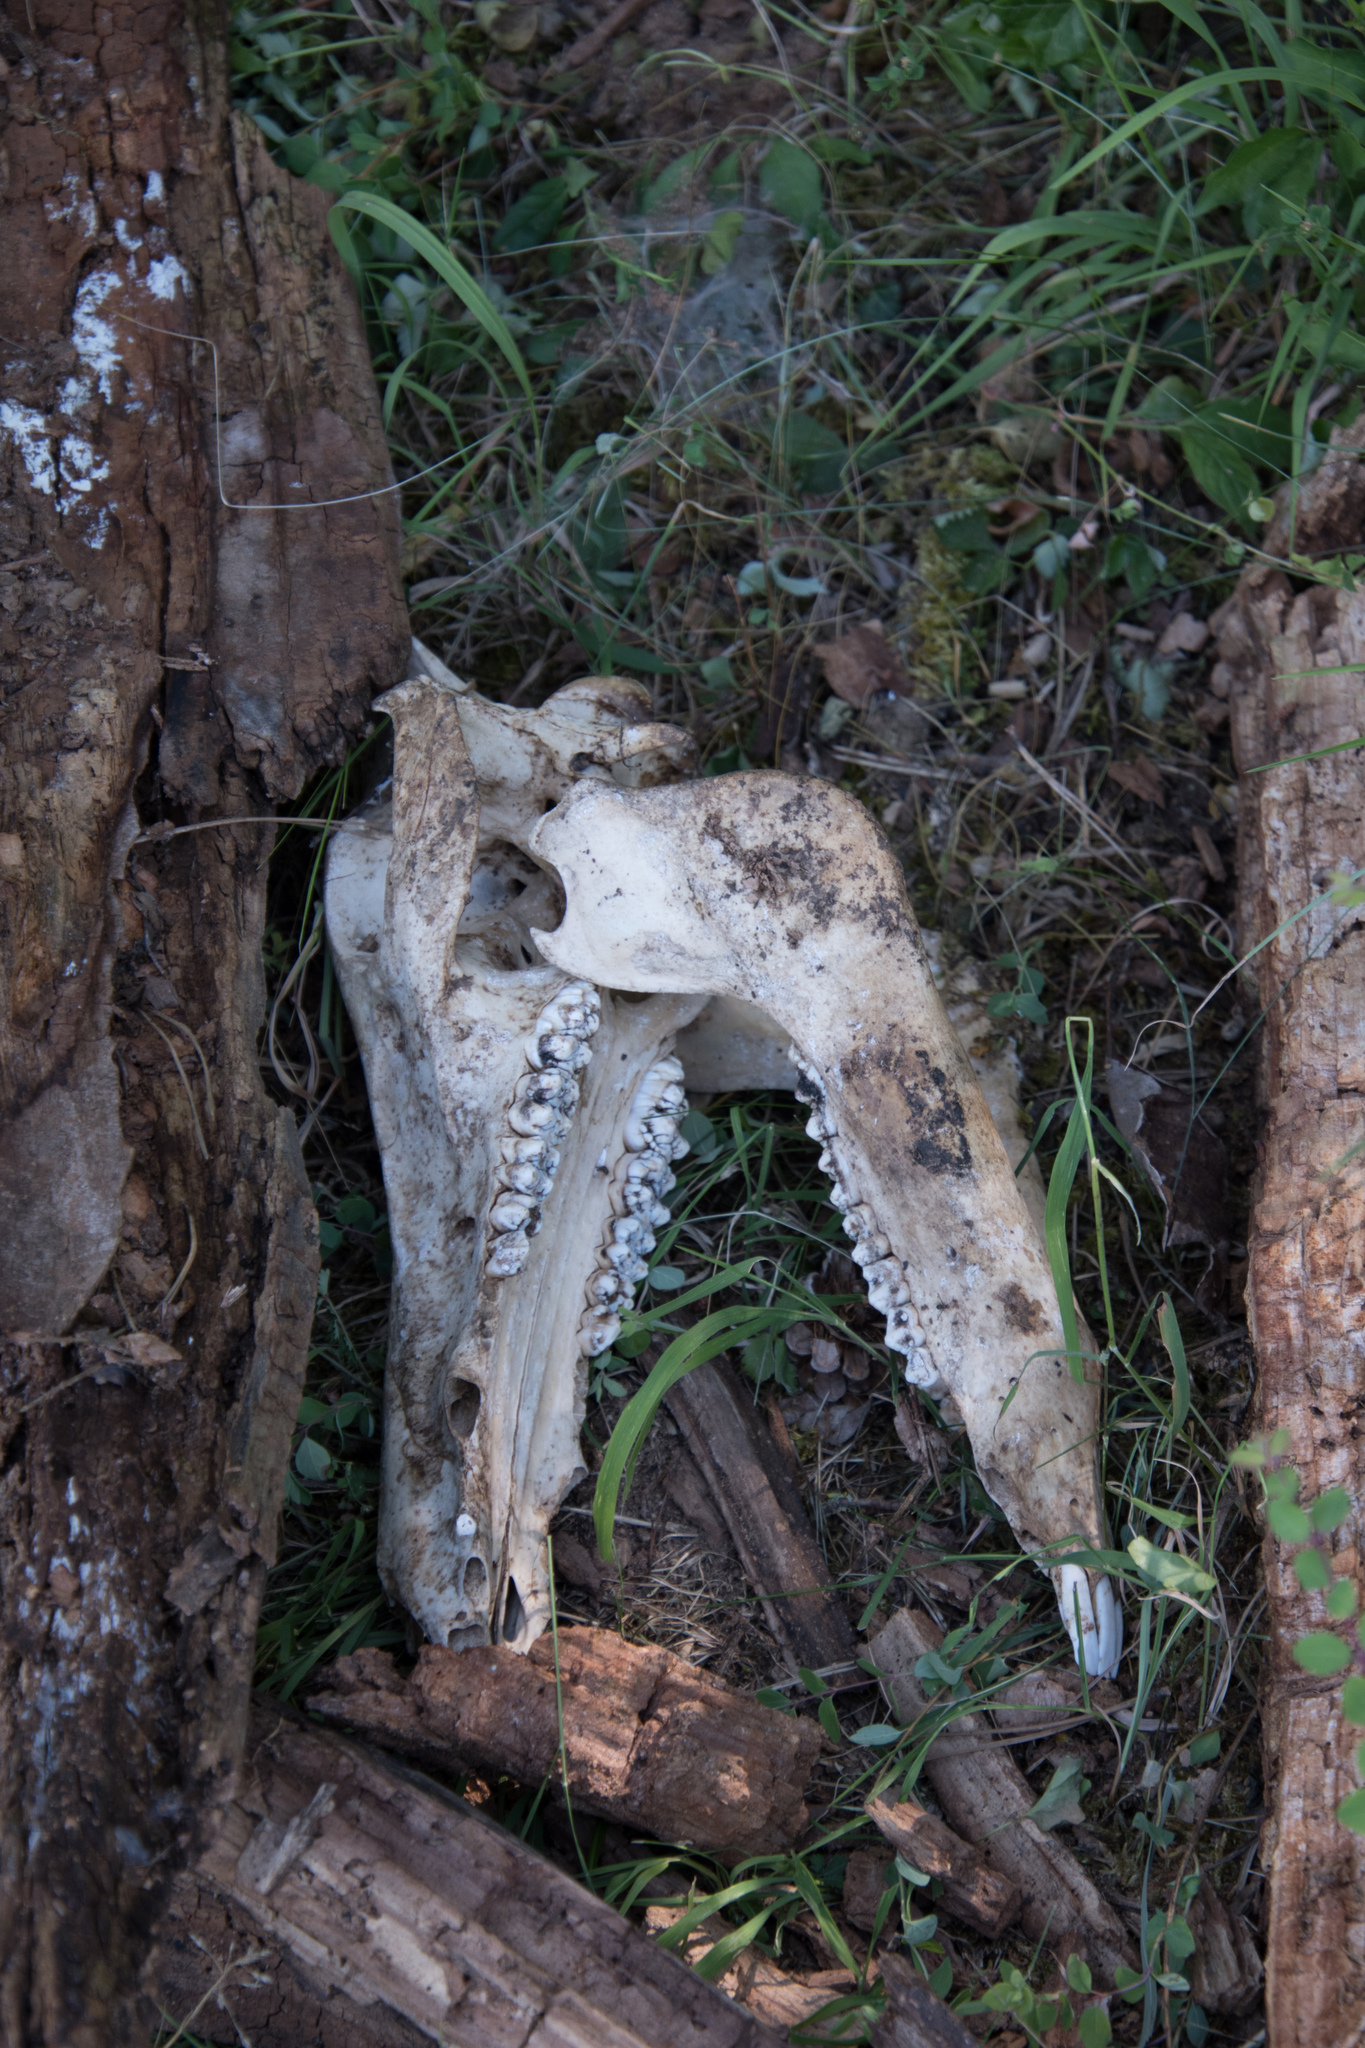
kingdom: Animalia
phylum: Chordata
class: Mammalia
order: Artiodactyla
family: Suidae
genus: Sus
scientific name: Sus scrofa
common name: Wild boar
